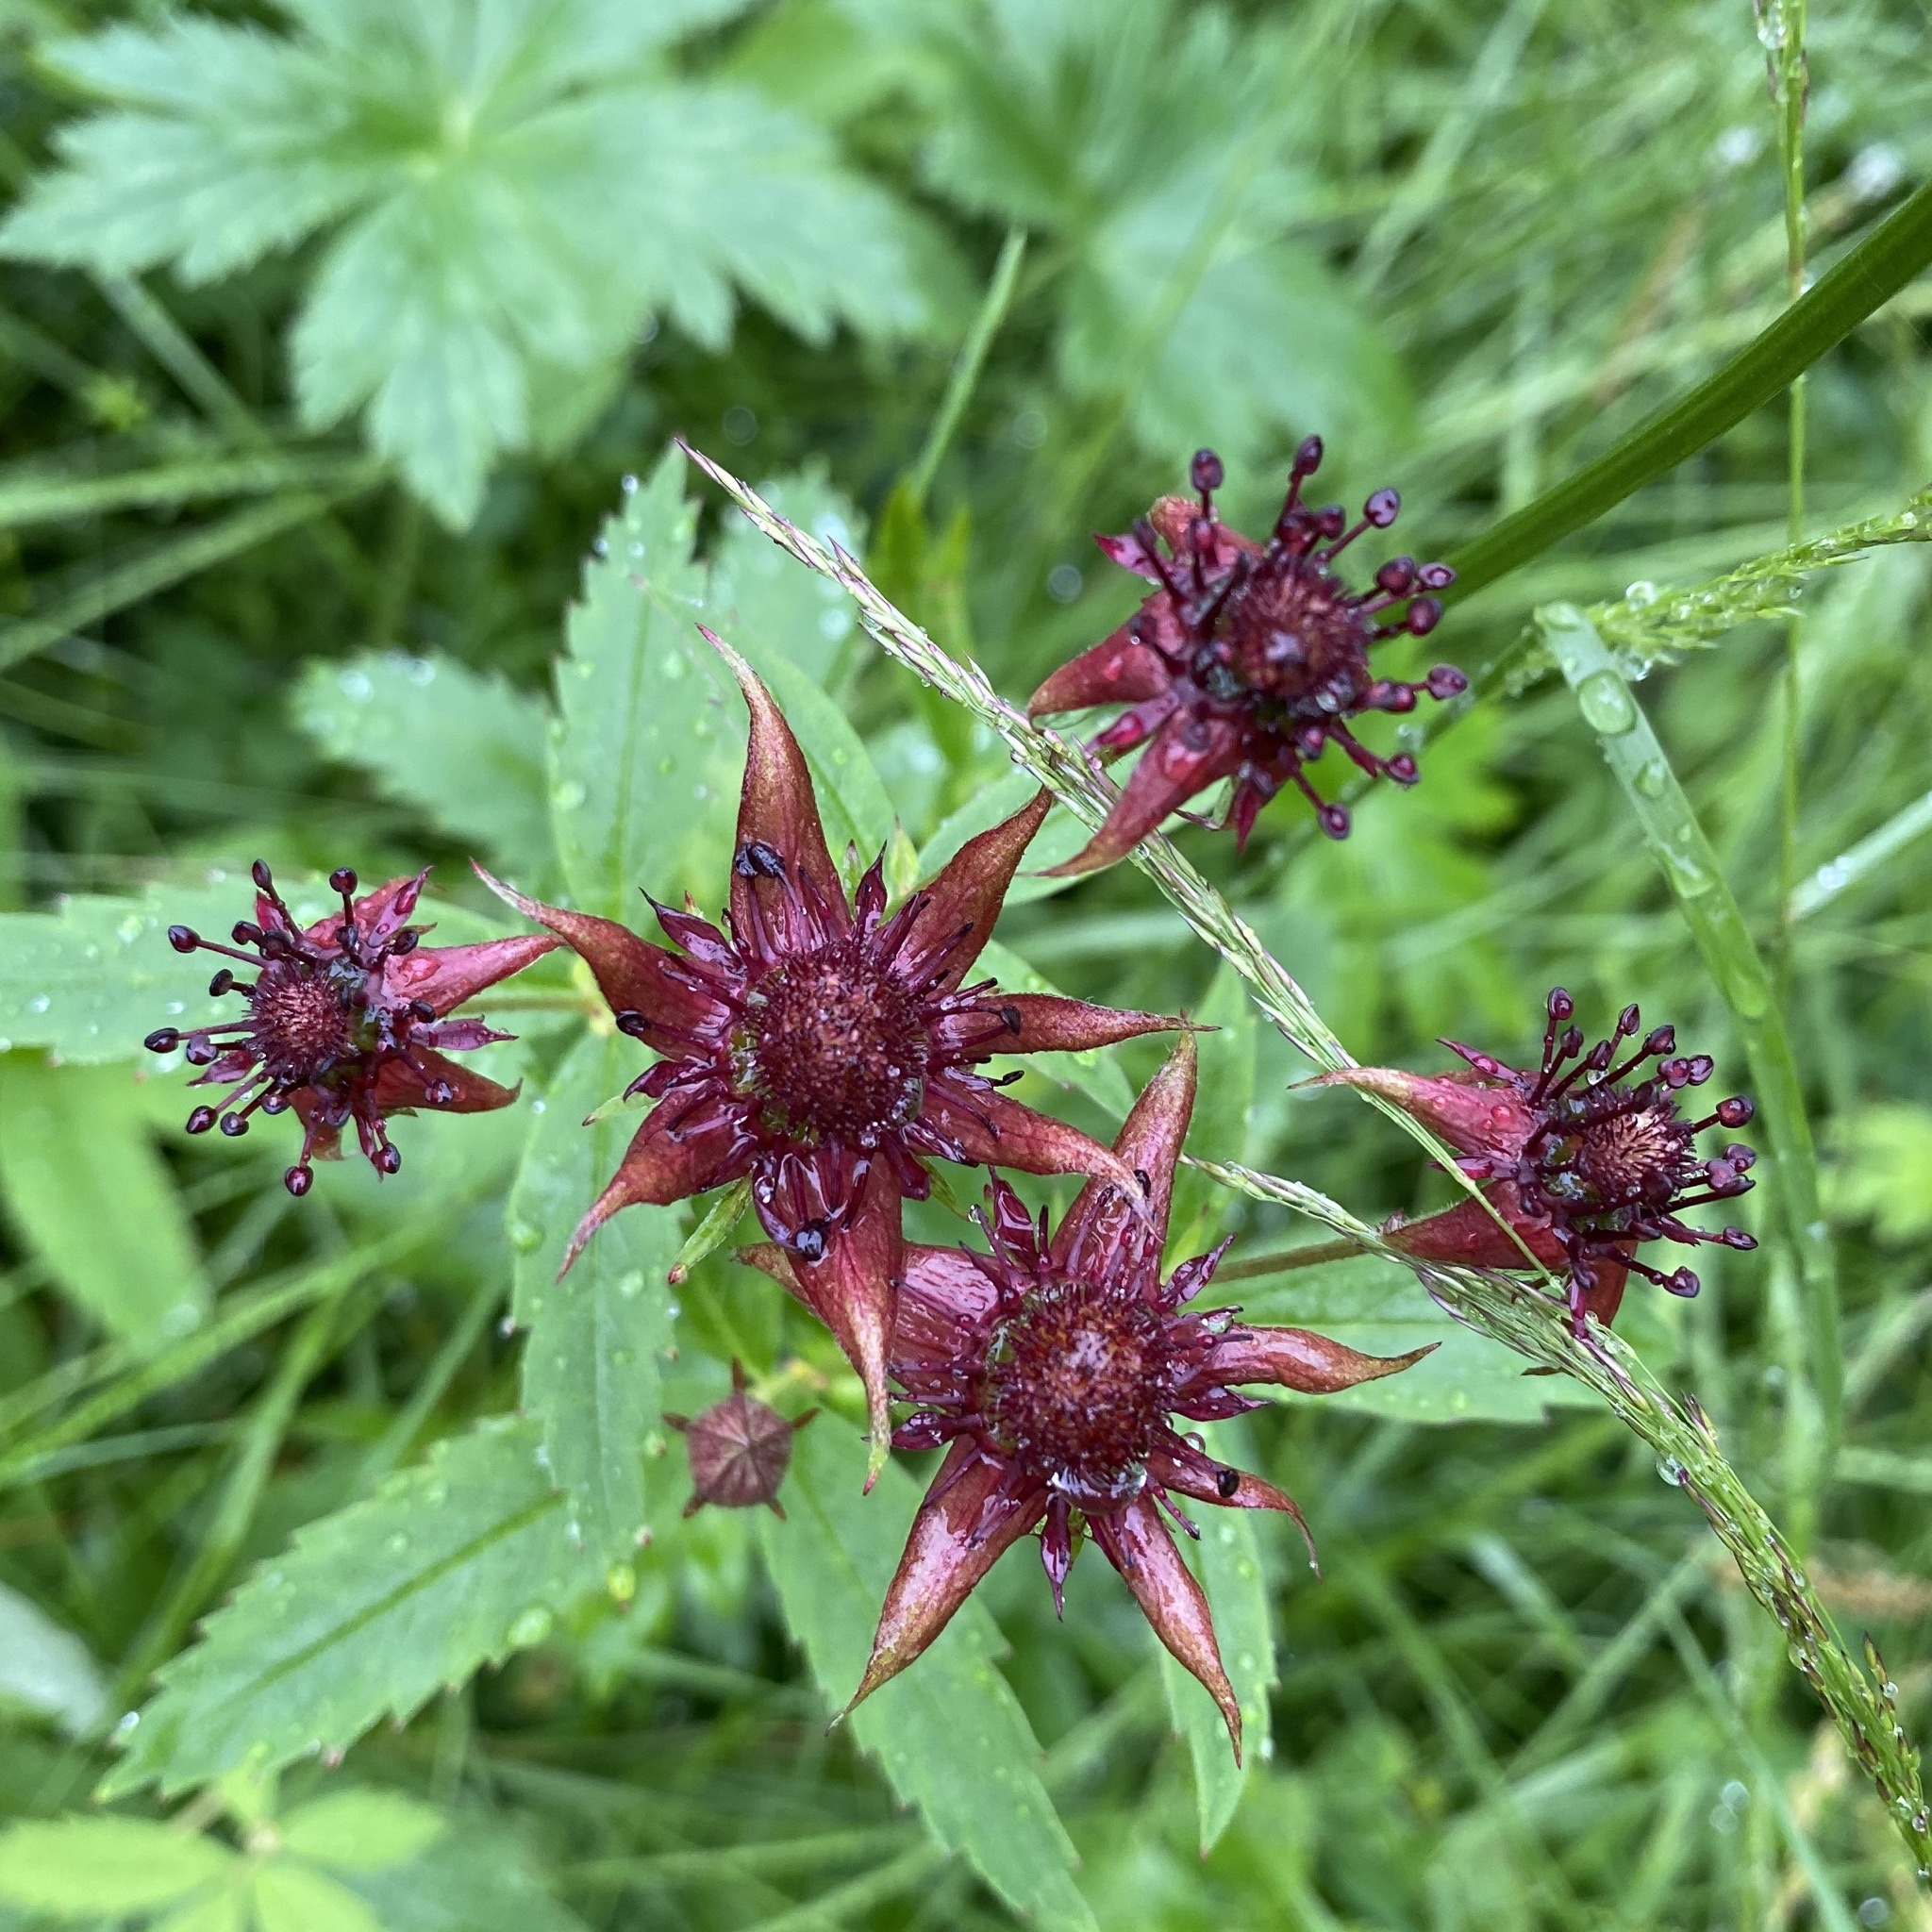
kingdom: Plantae
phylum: Tracheophyta
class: Magnoliopsida
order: Rosales
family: Rosaceae
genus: Comarum
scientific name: Comarum palustre
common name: Marsh cinquefoil
